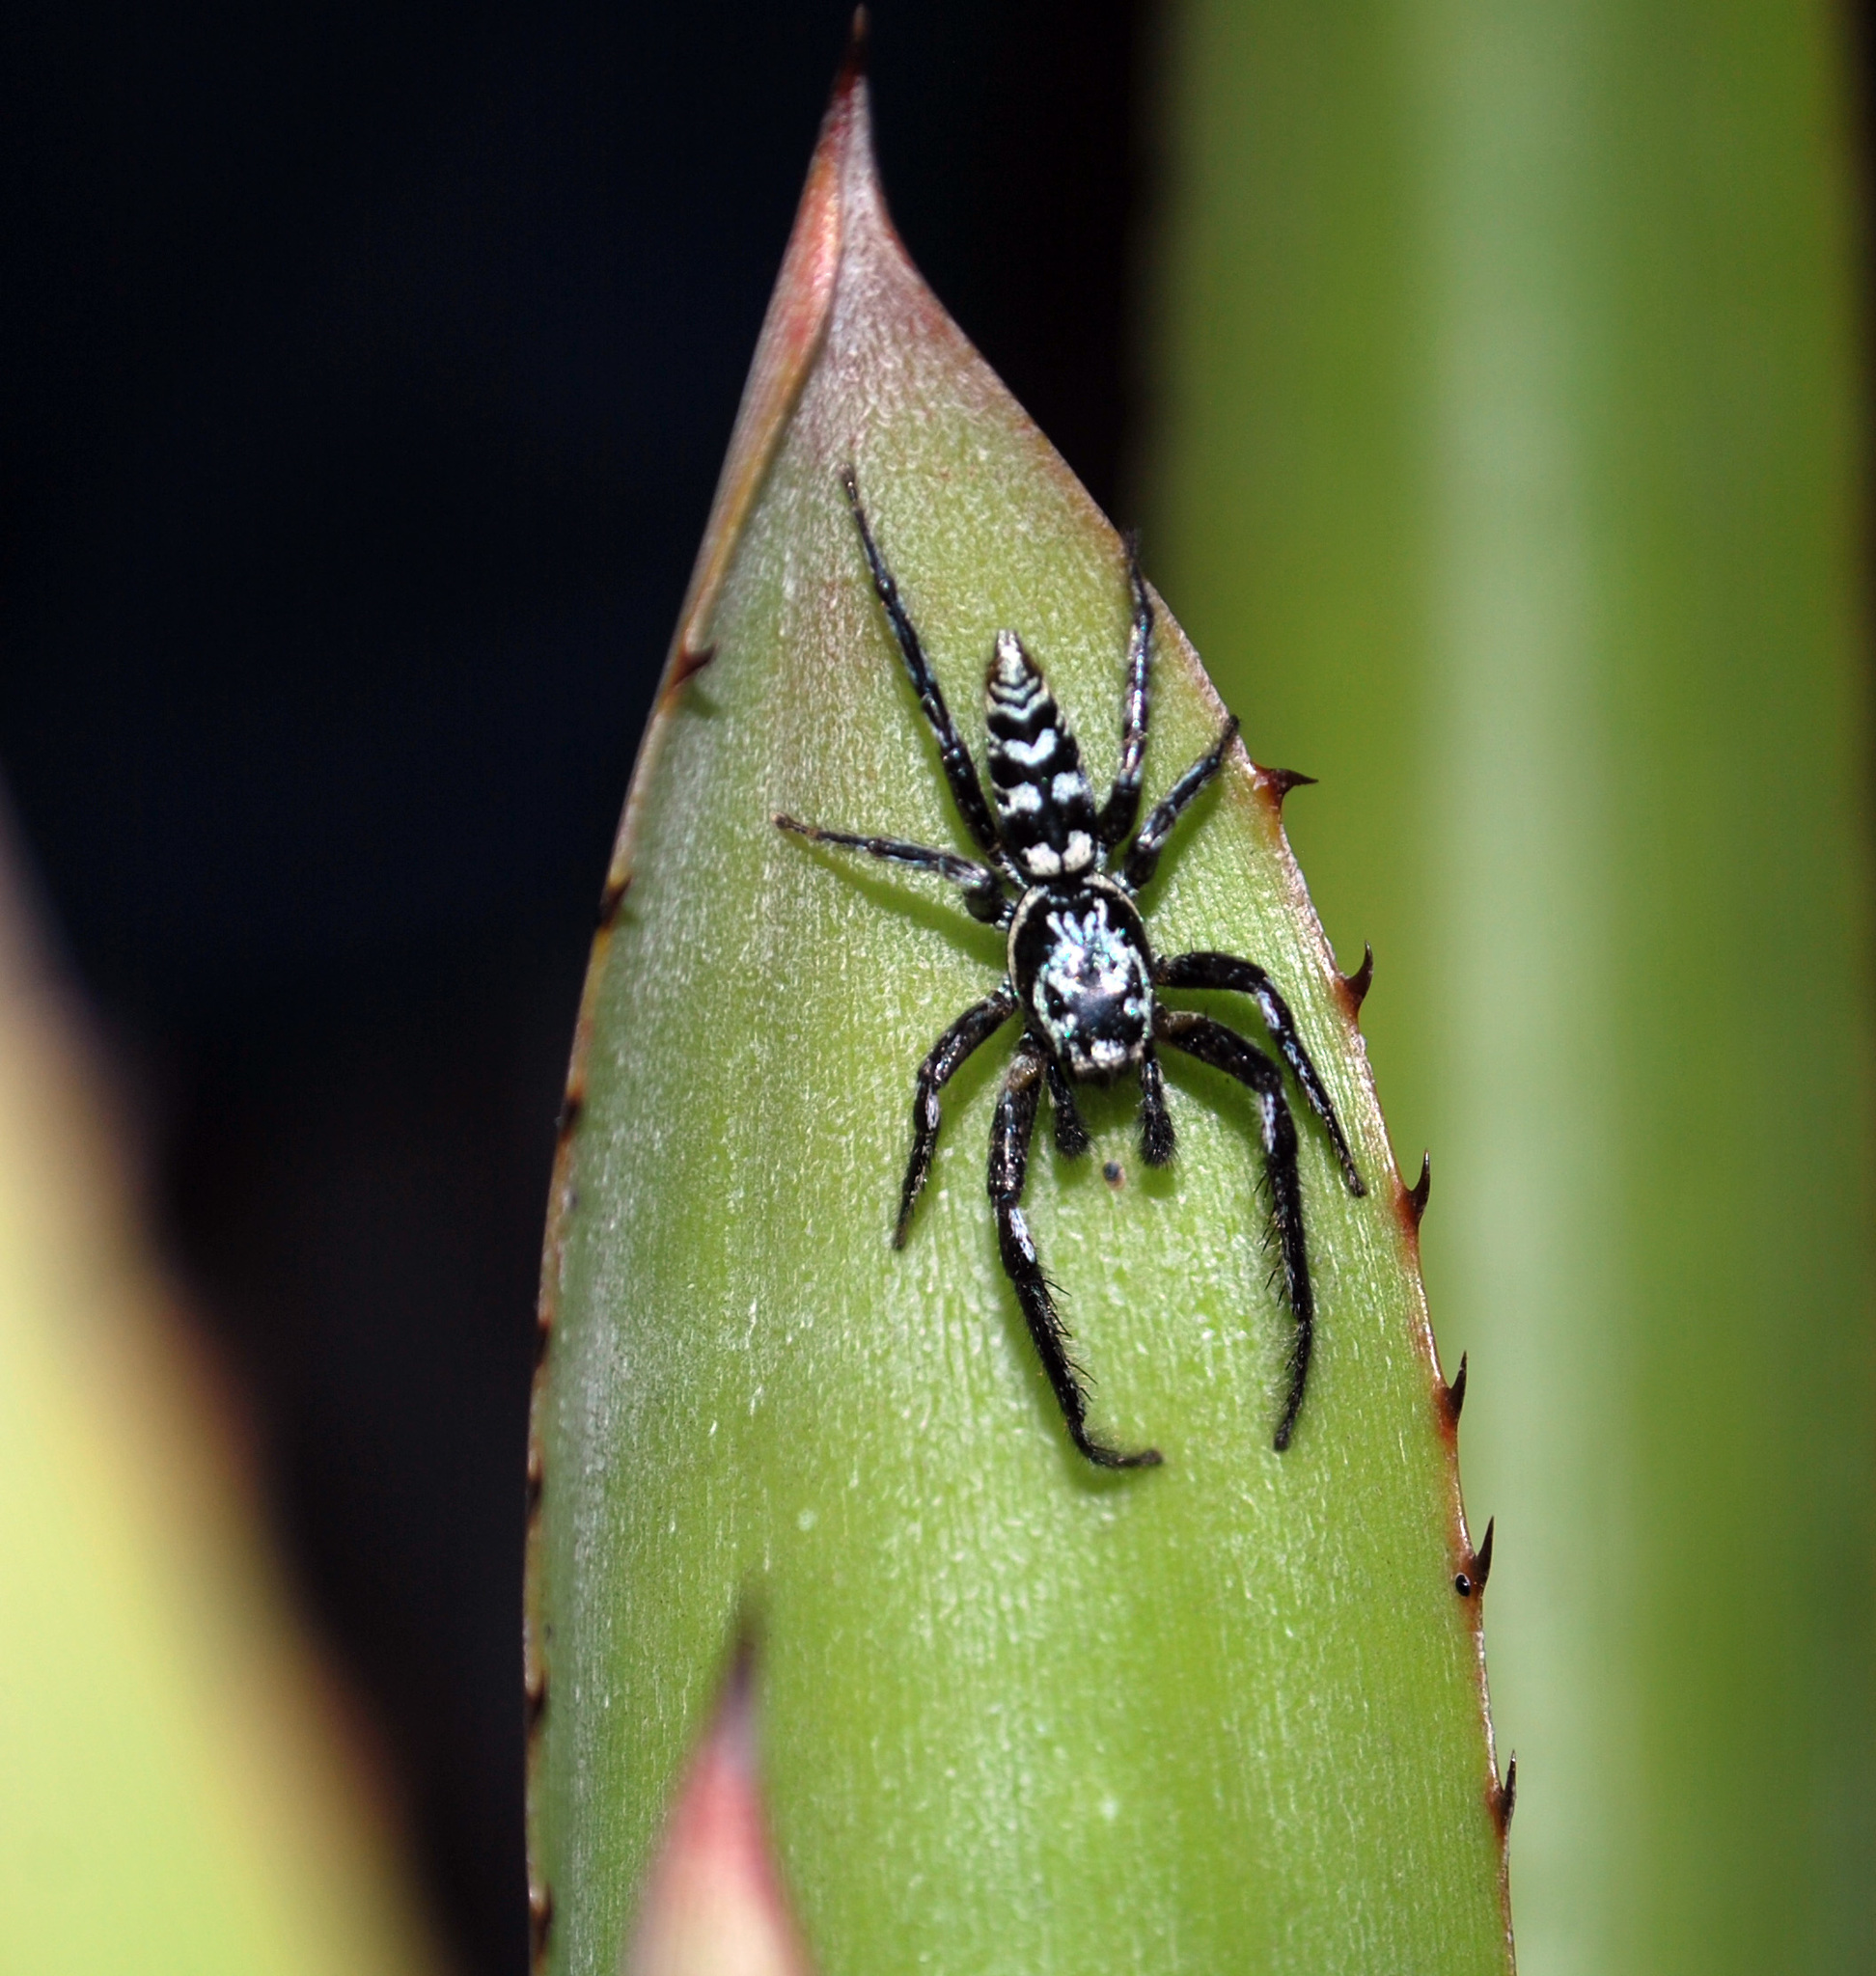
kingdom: Animalia
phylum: Arthropoda
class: Arachnida
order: Araneae
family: Salticidae
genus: Psecas
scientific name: Psecas chapoda
